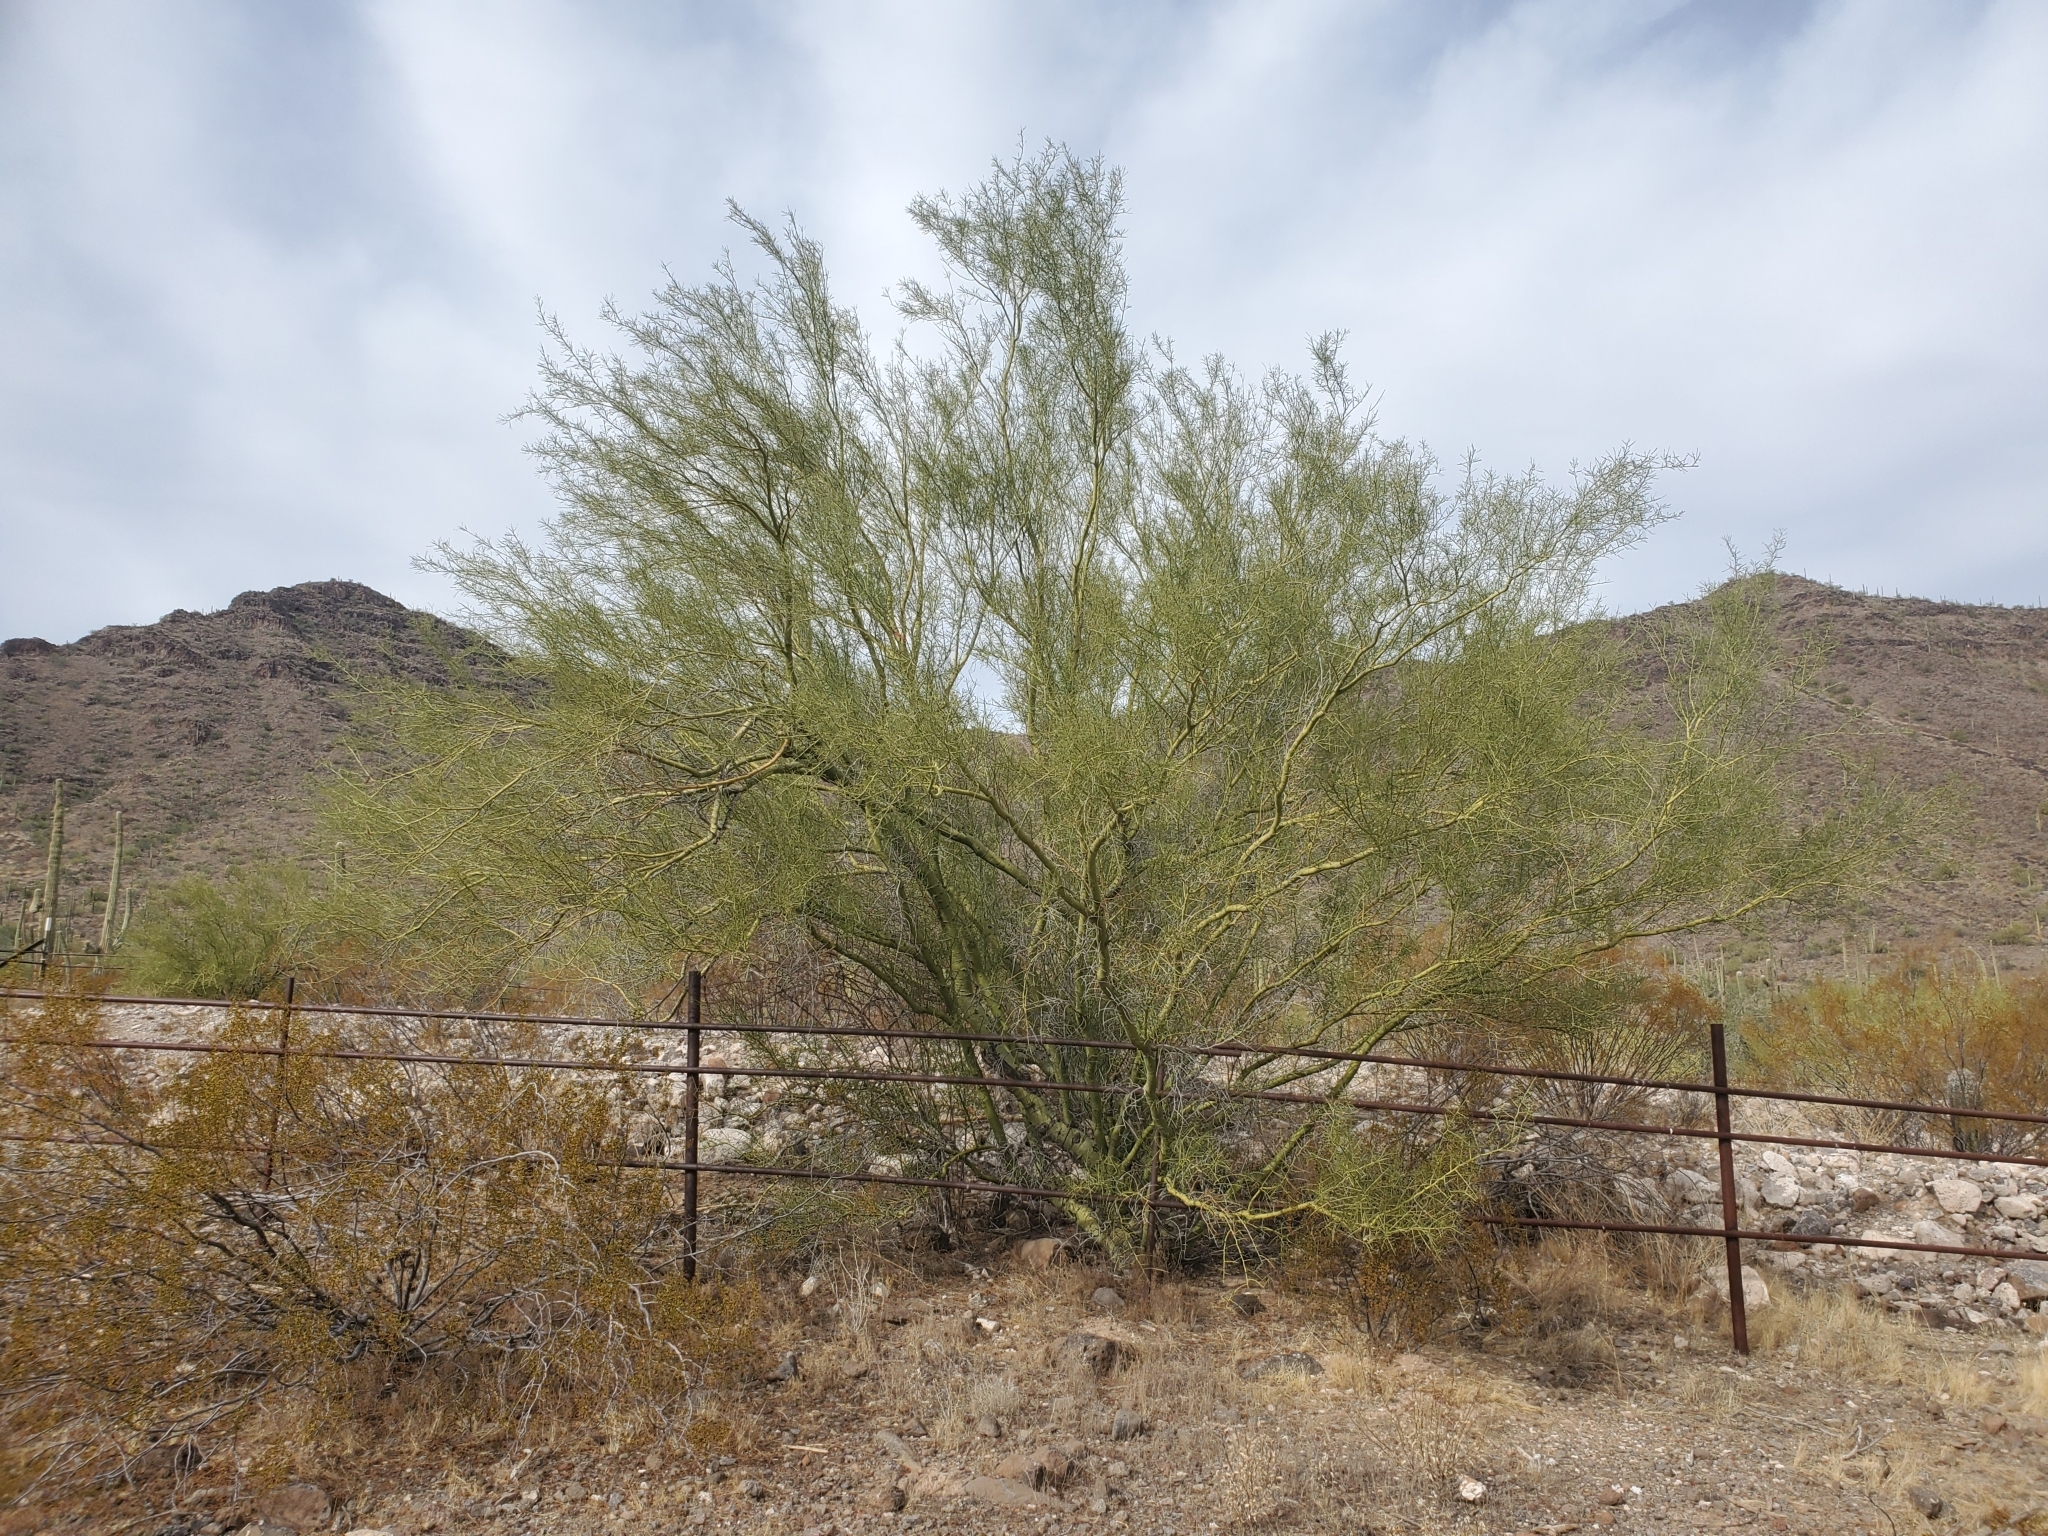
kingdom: Plantae
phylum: Tracheophyta
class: Magnoliopsida
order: Fabales
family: Fabaceae
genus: Parkinsonia
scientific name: Parkinsonia microphylla
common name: Yellow paloverde
